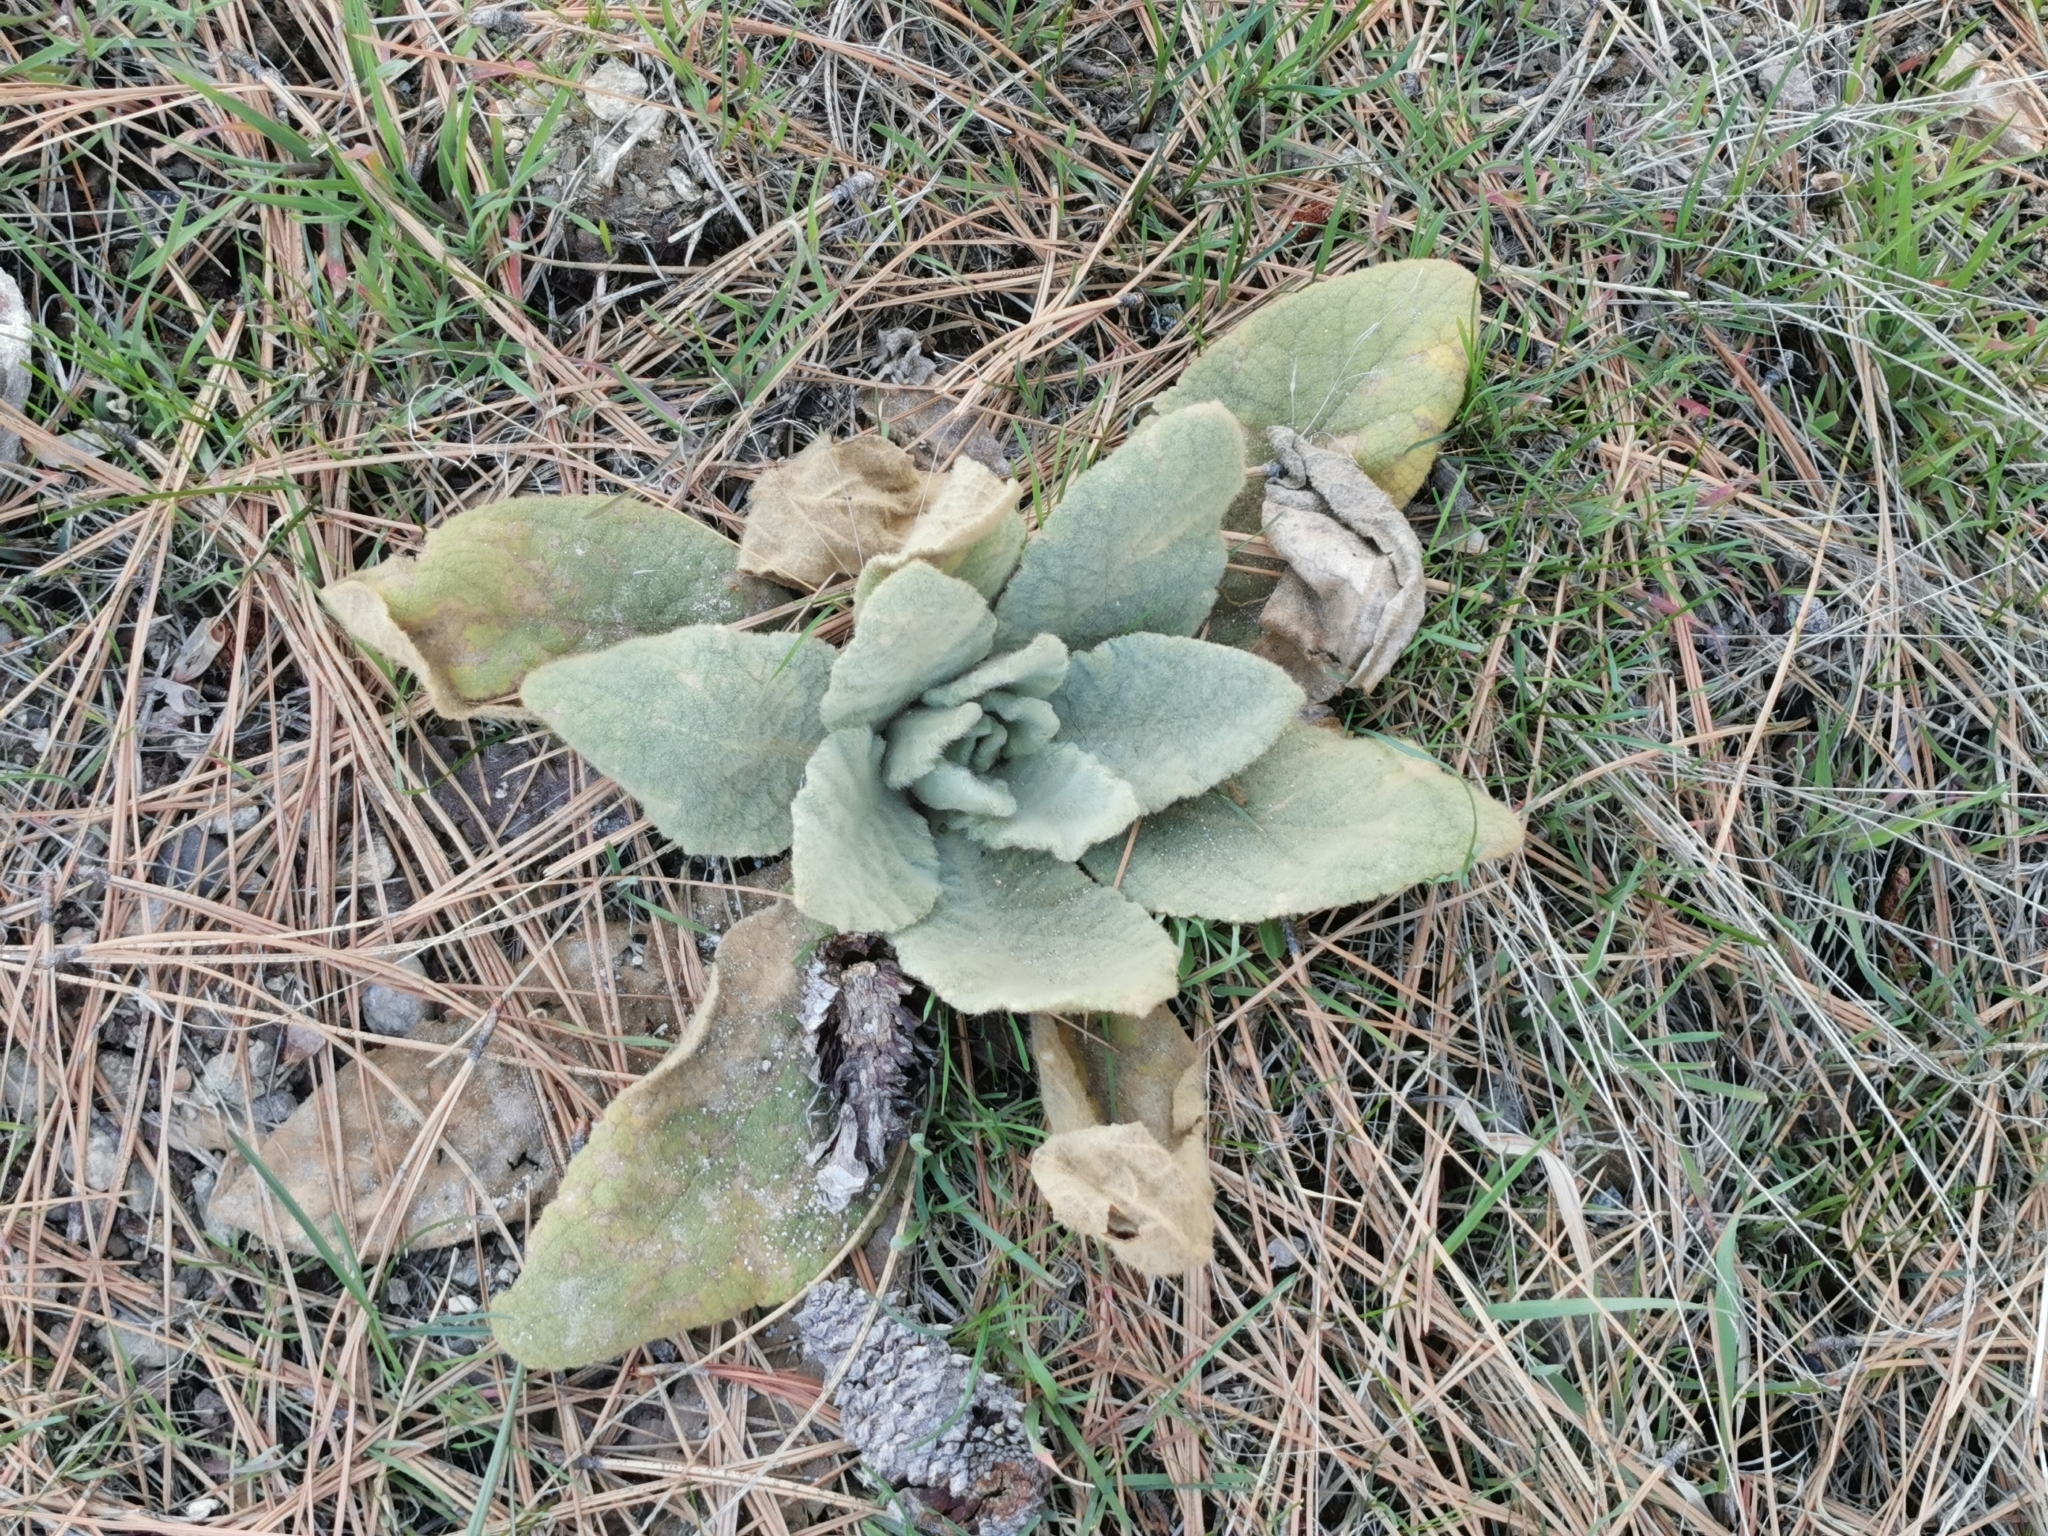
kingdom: Plantae
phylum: Tracheophyta
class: Magnoliopsida
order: Lamiales
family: Scrophulariaceae
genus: Verbascum
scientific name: Verbascum thapsus
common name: Common mullein
